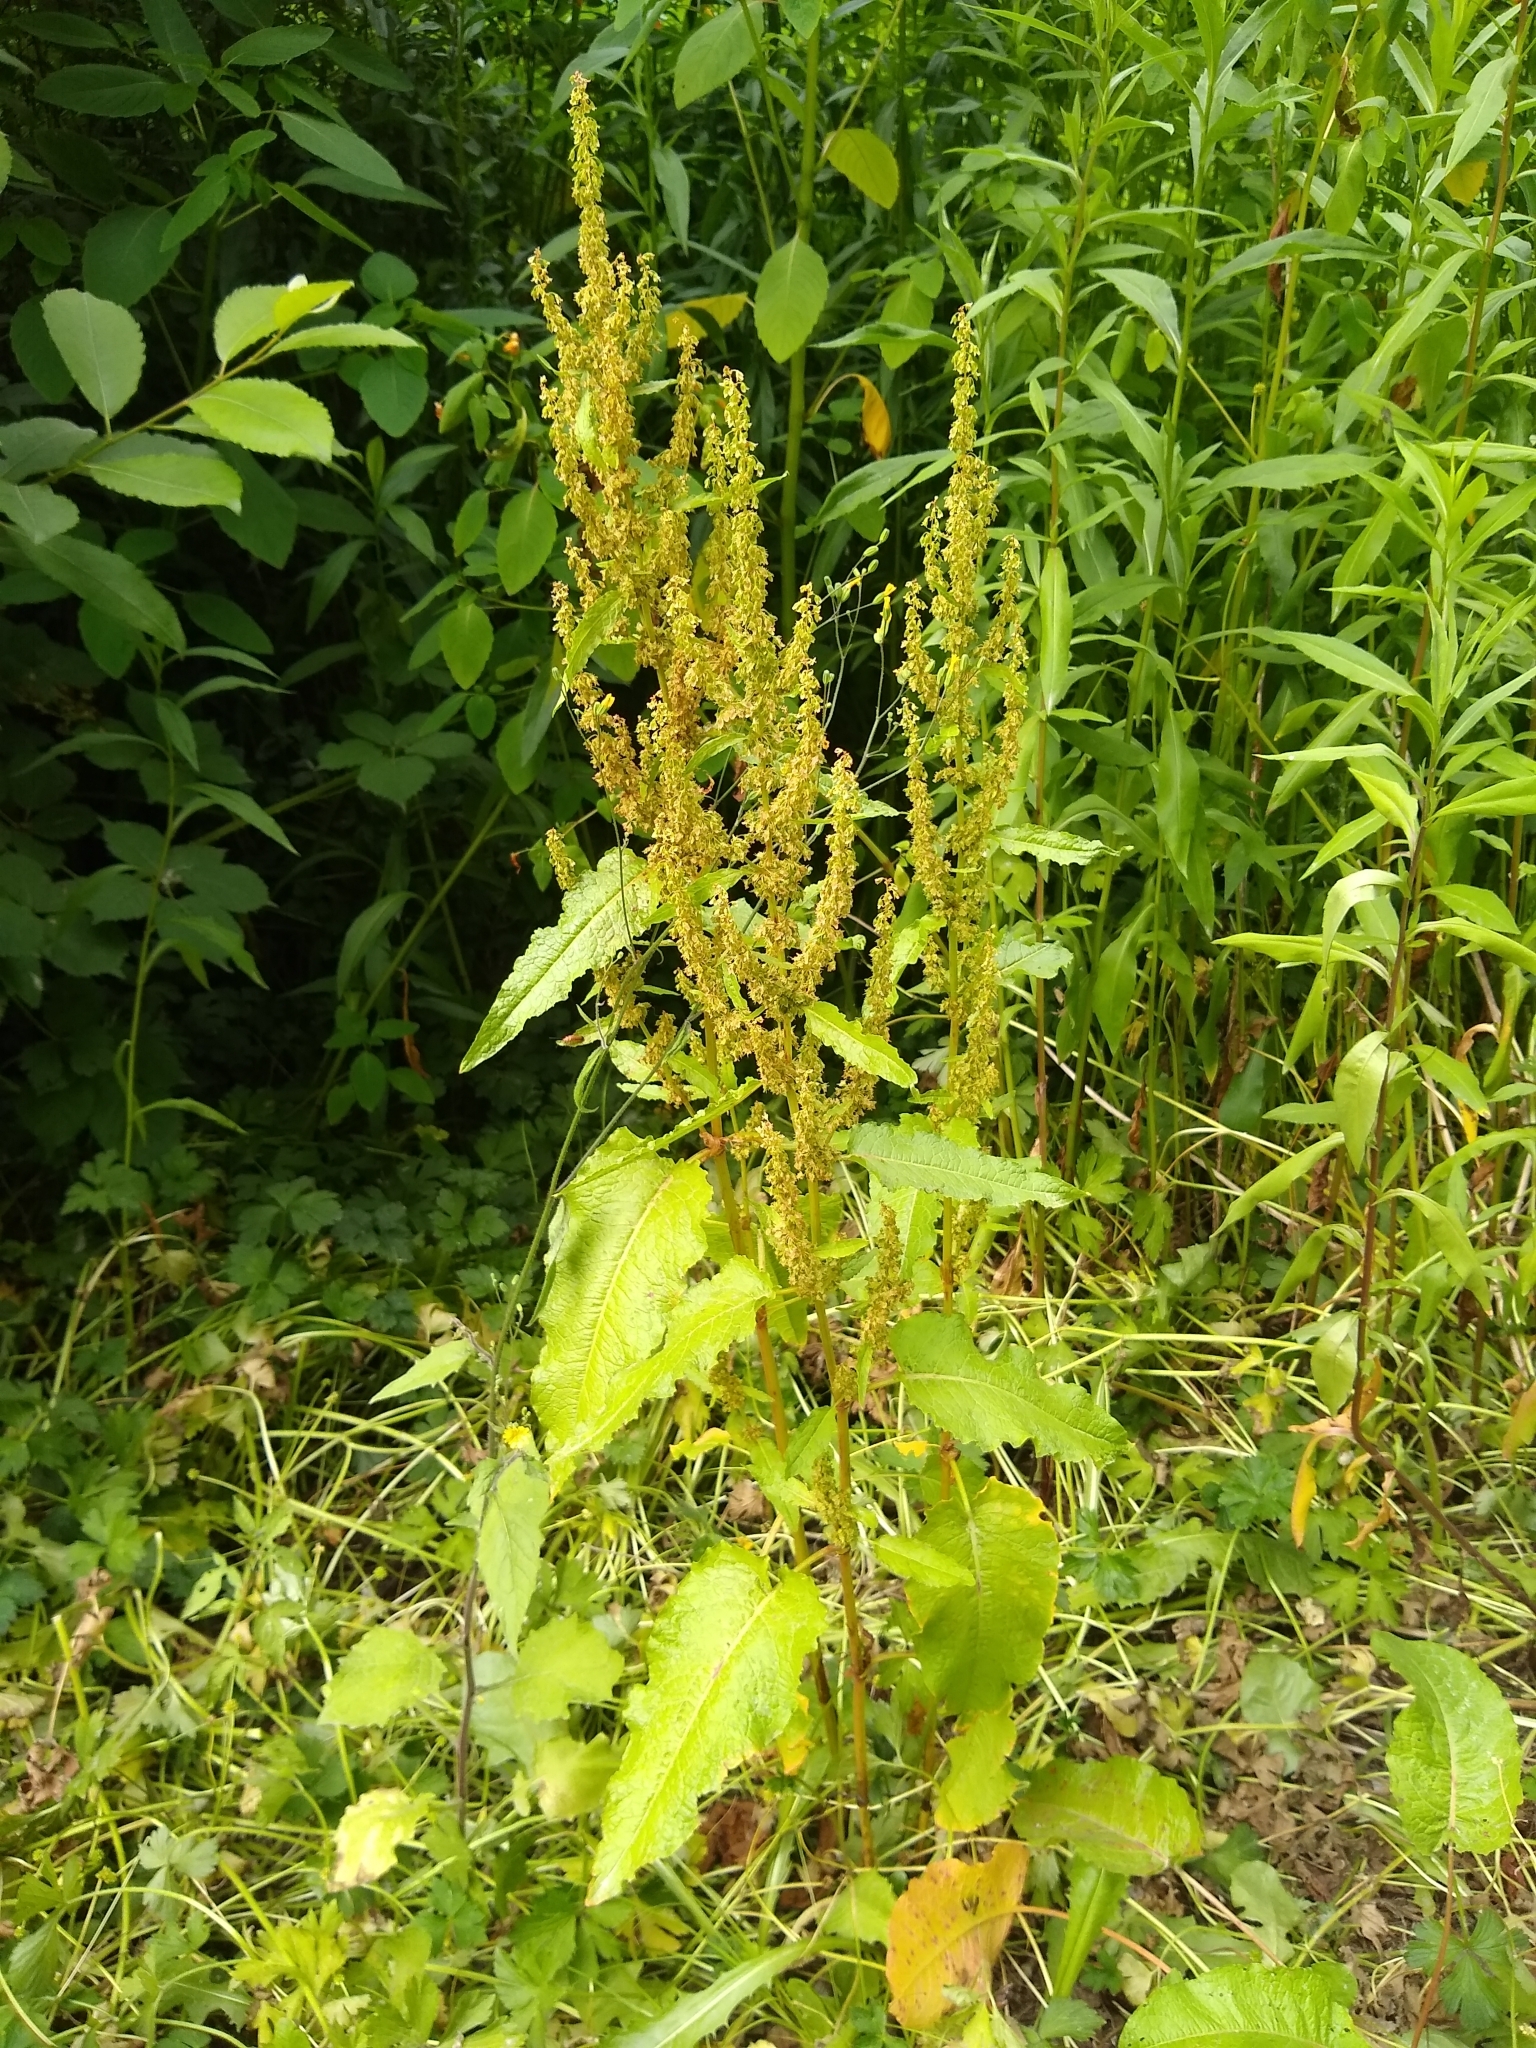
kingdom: Plantae
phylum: Tracheophyta
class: Magnoliopsida
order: Caryophyllales
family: Polygonaceae
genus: Rumex
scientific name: Rumex obtusifolius
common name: Bitter dock
